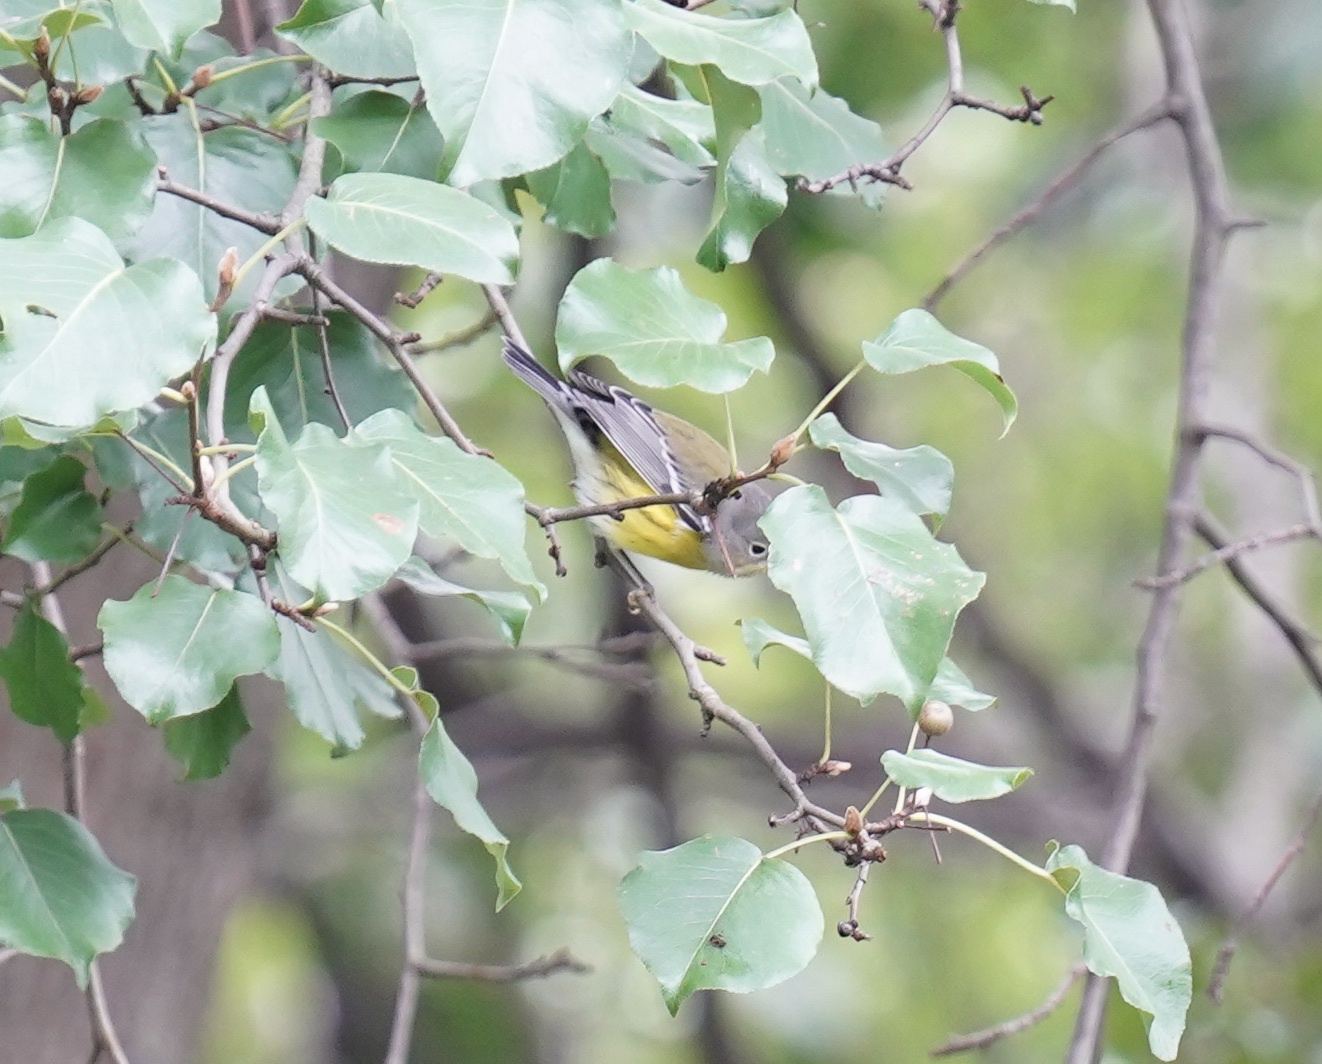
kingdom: Animalia
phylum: Chordata
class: Aves
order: Passeriformes
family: Parulidae
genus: Setophaga
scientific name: Setophaga magnolia
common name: Magnolia warbler
